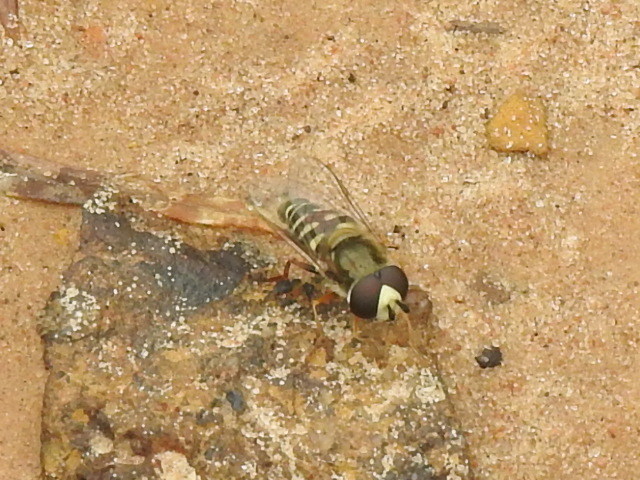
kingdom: Animalia
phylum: Arthropoda
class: Insecta
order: Diptera
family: Syrphidae
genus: Eupeodes
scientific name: Eupeodes volucris
